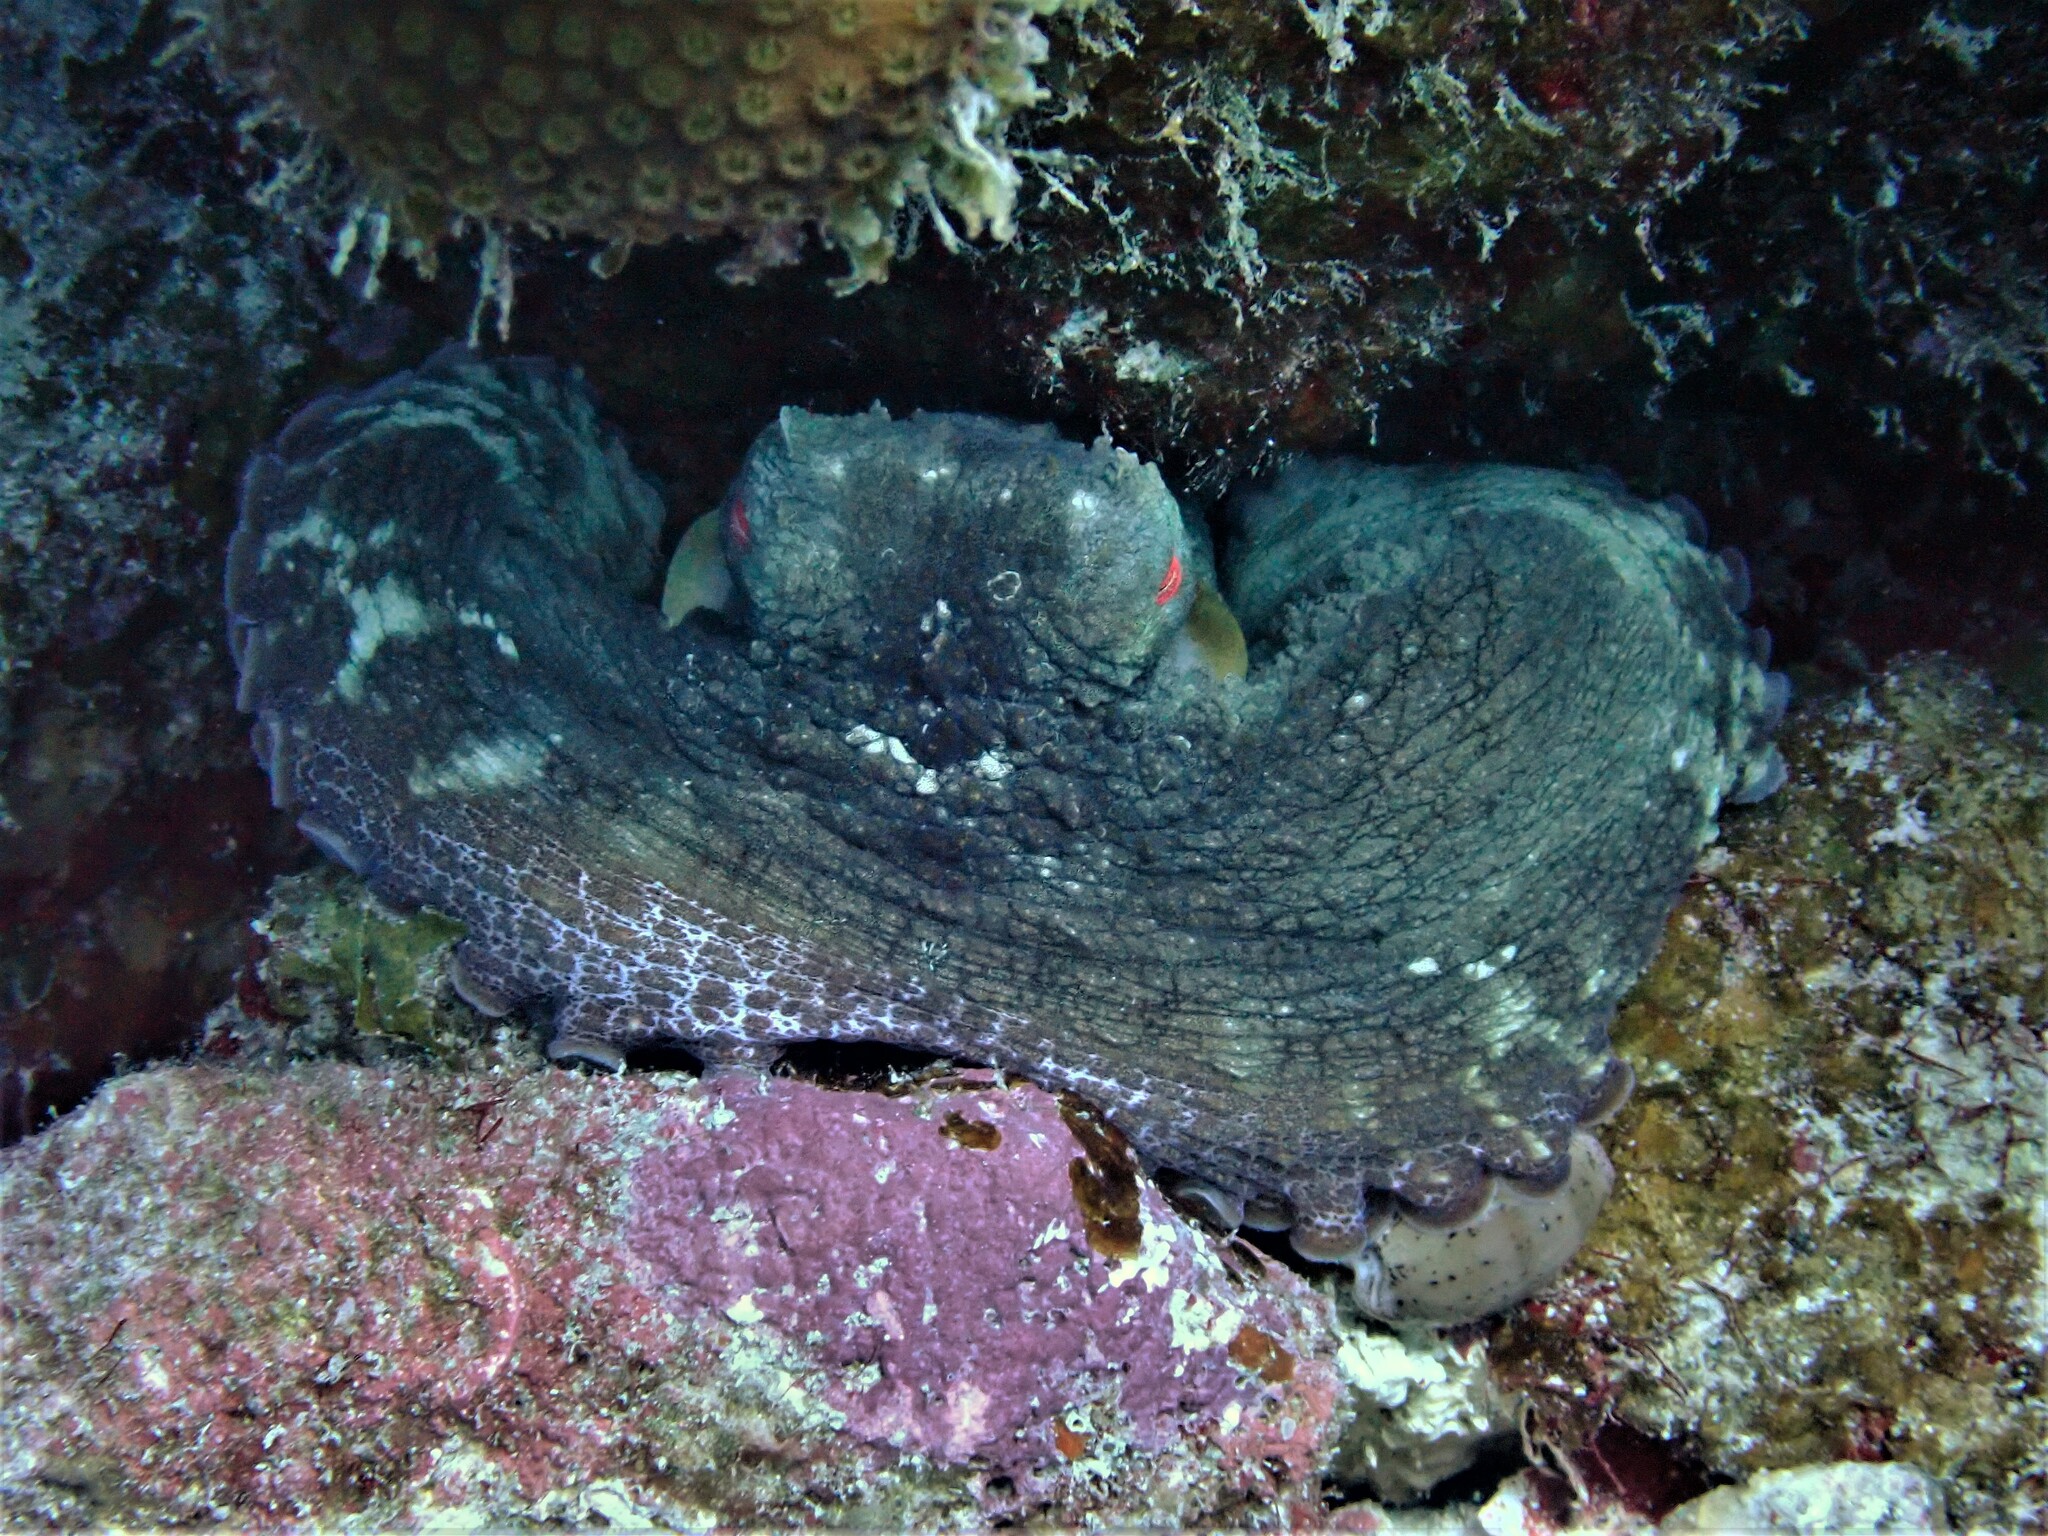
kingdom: Animalia
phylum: Mollusca
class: Cephalopoda
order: Octopoda
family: Octopodidae
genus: Octopus
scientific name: Octopus insularis
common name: Brazil reef octopus
